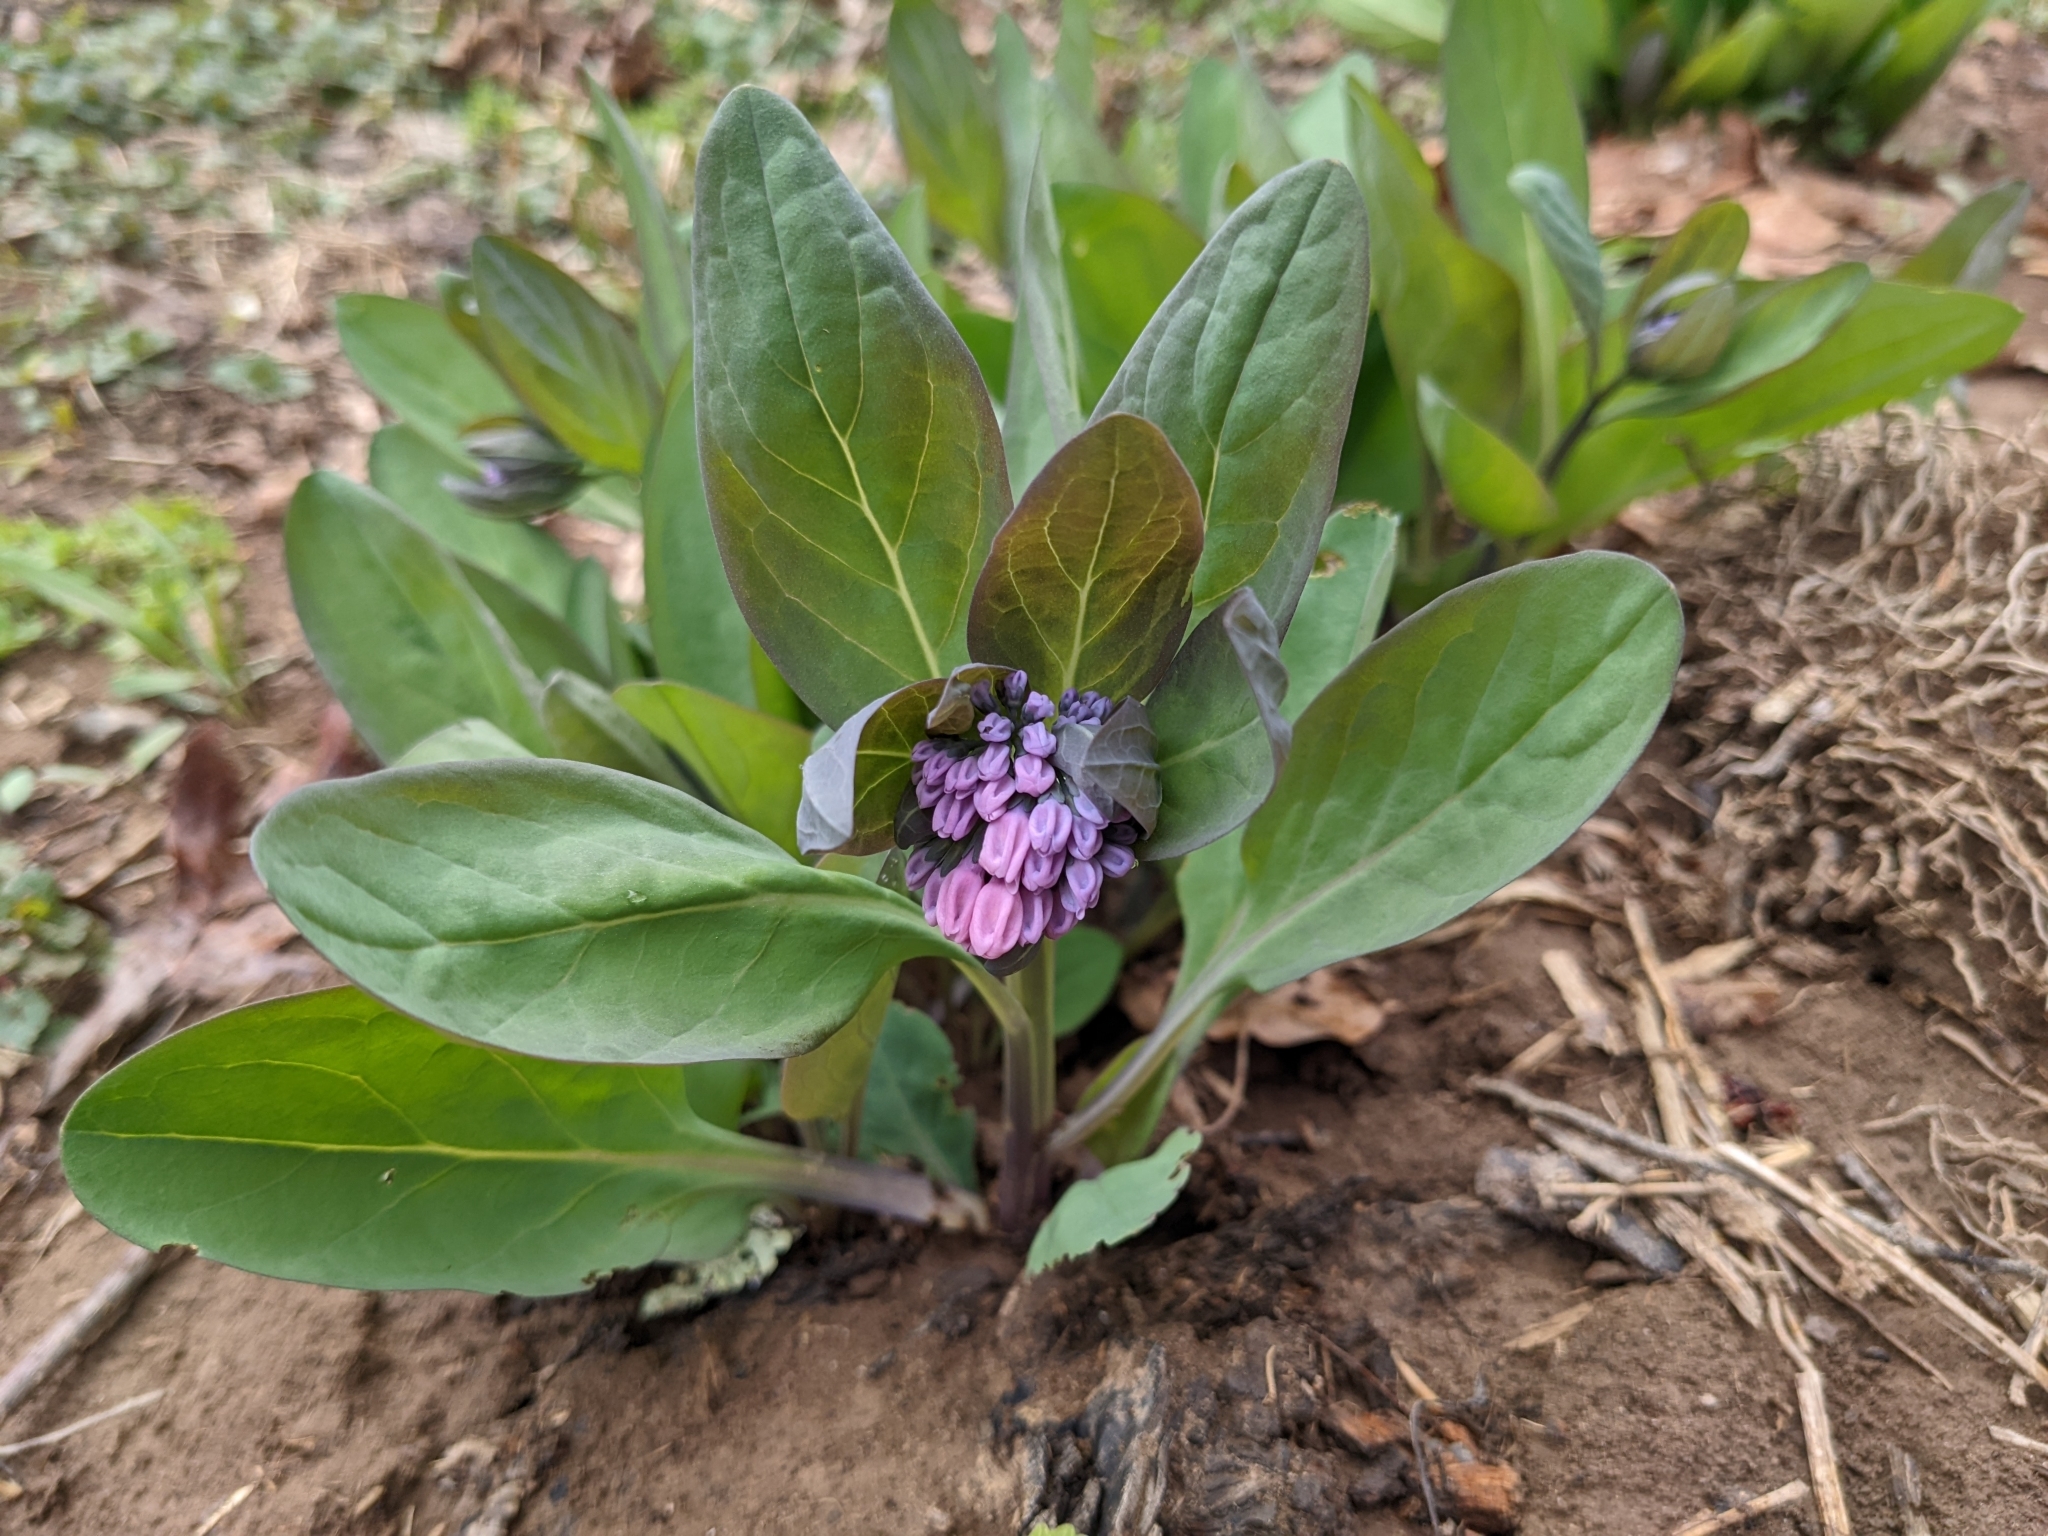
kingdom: Plantae
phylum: Tracheophyta
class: Magnoliopsida
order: Boraginales
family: Boraginaceae
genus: Mertensia
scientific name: Mertensia virginica
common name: Virginia bluebells
